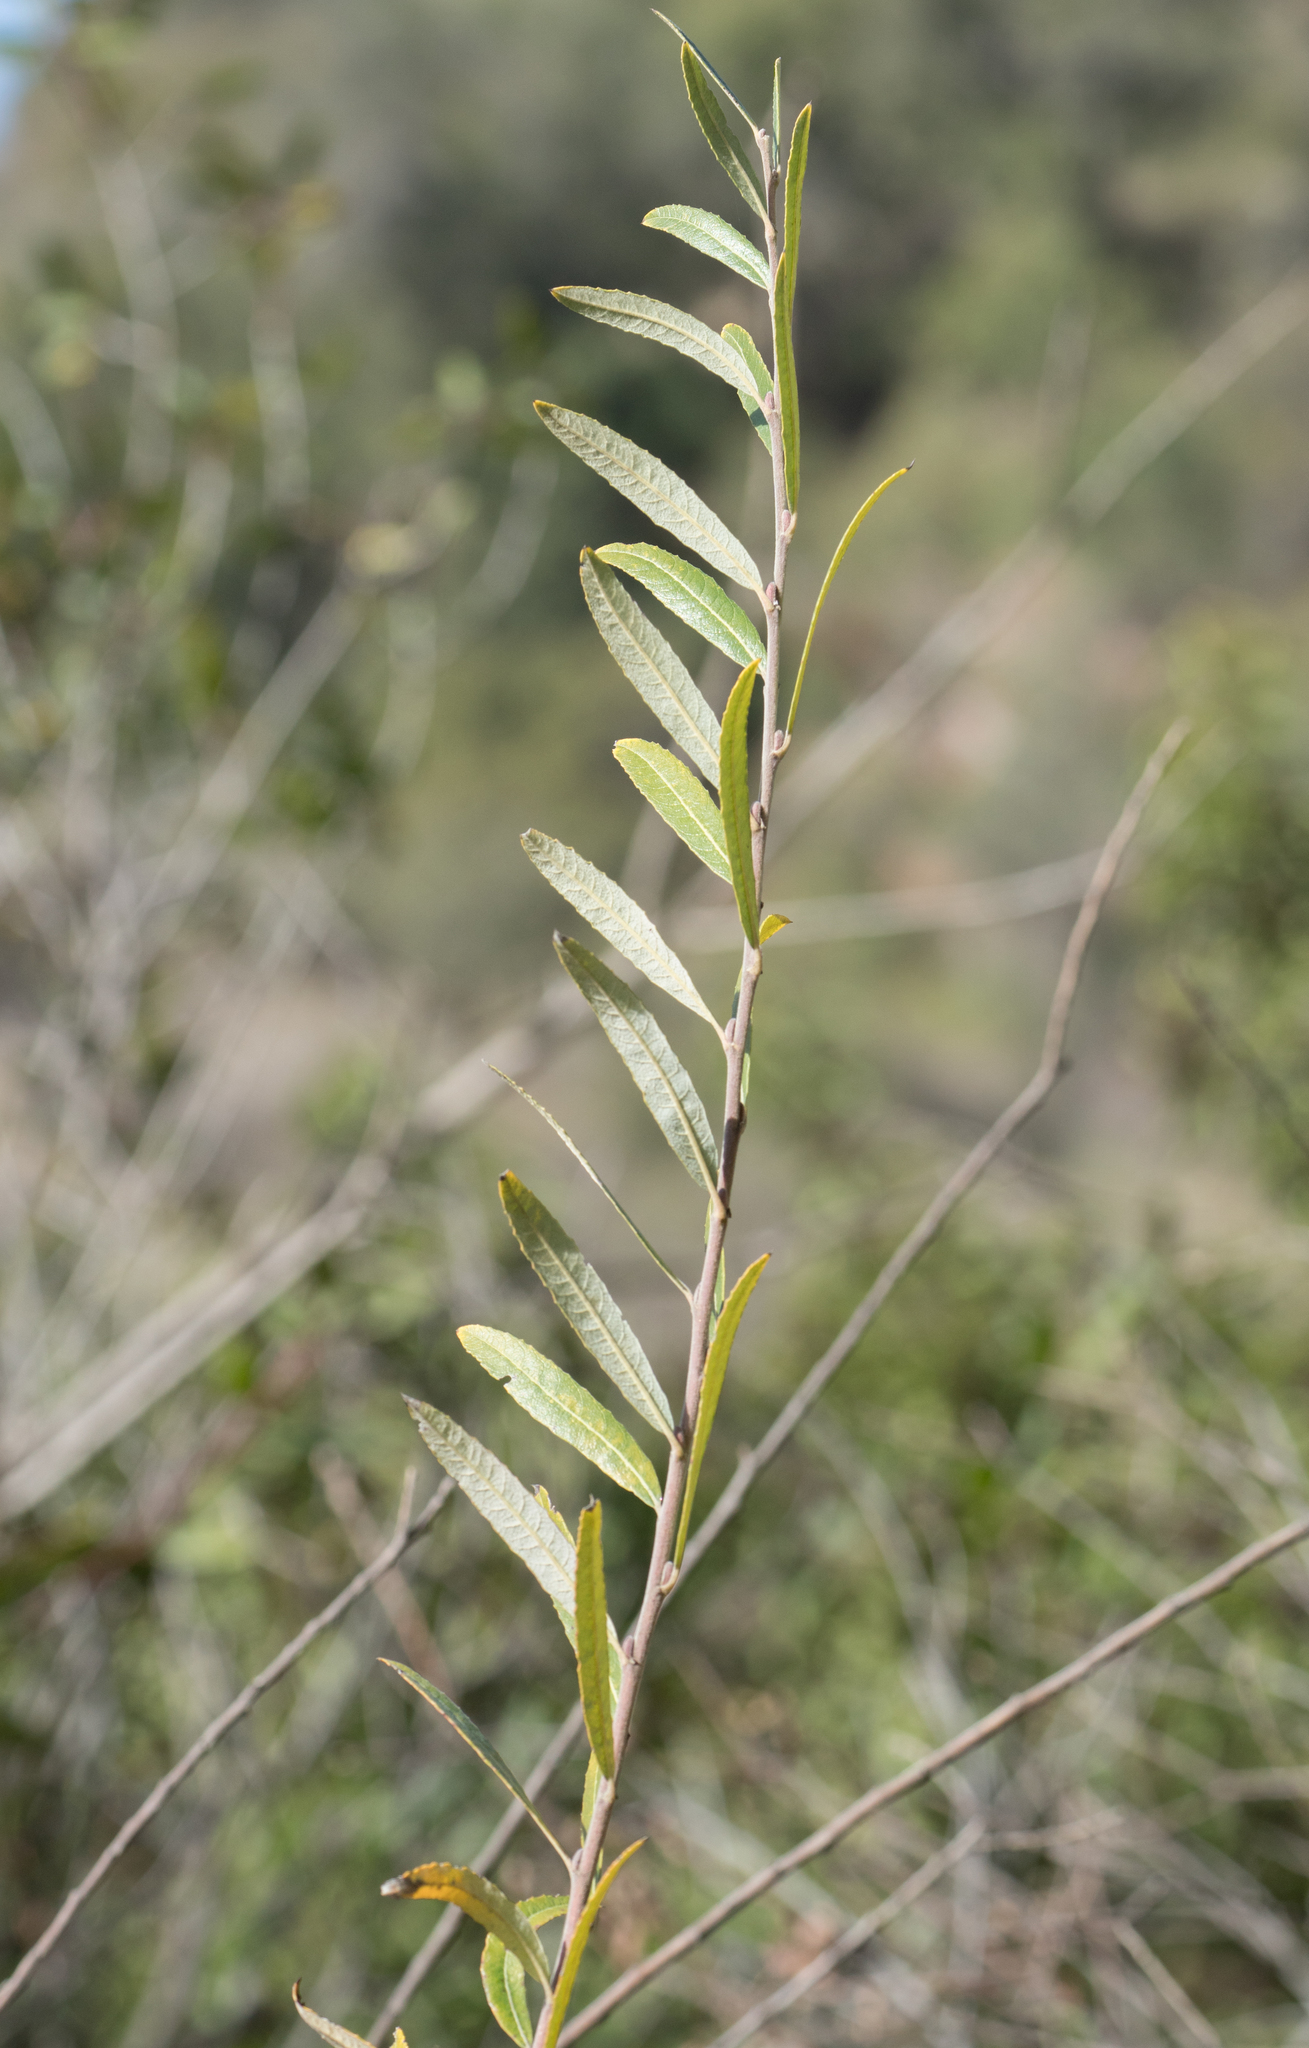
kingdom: Plantae
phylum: Tracheophyta
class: Magnoliopsida
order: Malpighiales
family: Salicaceae
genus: Salix
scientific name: Salix lasiolepis
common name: Arroyo willow
